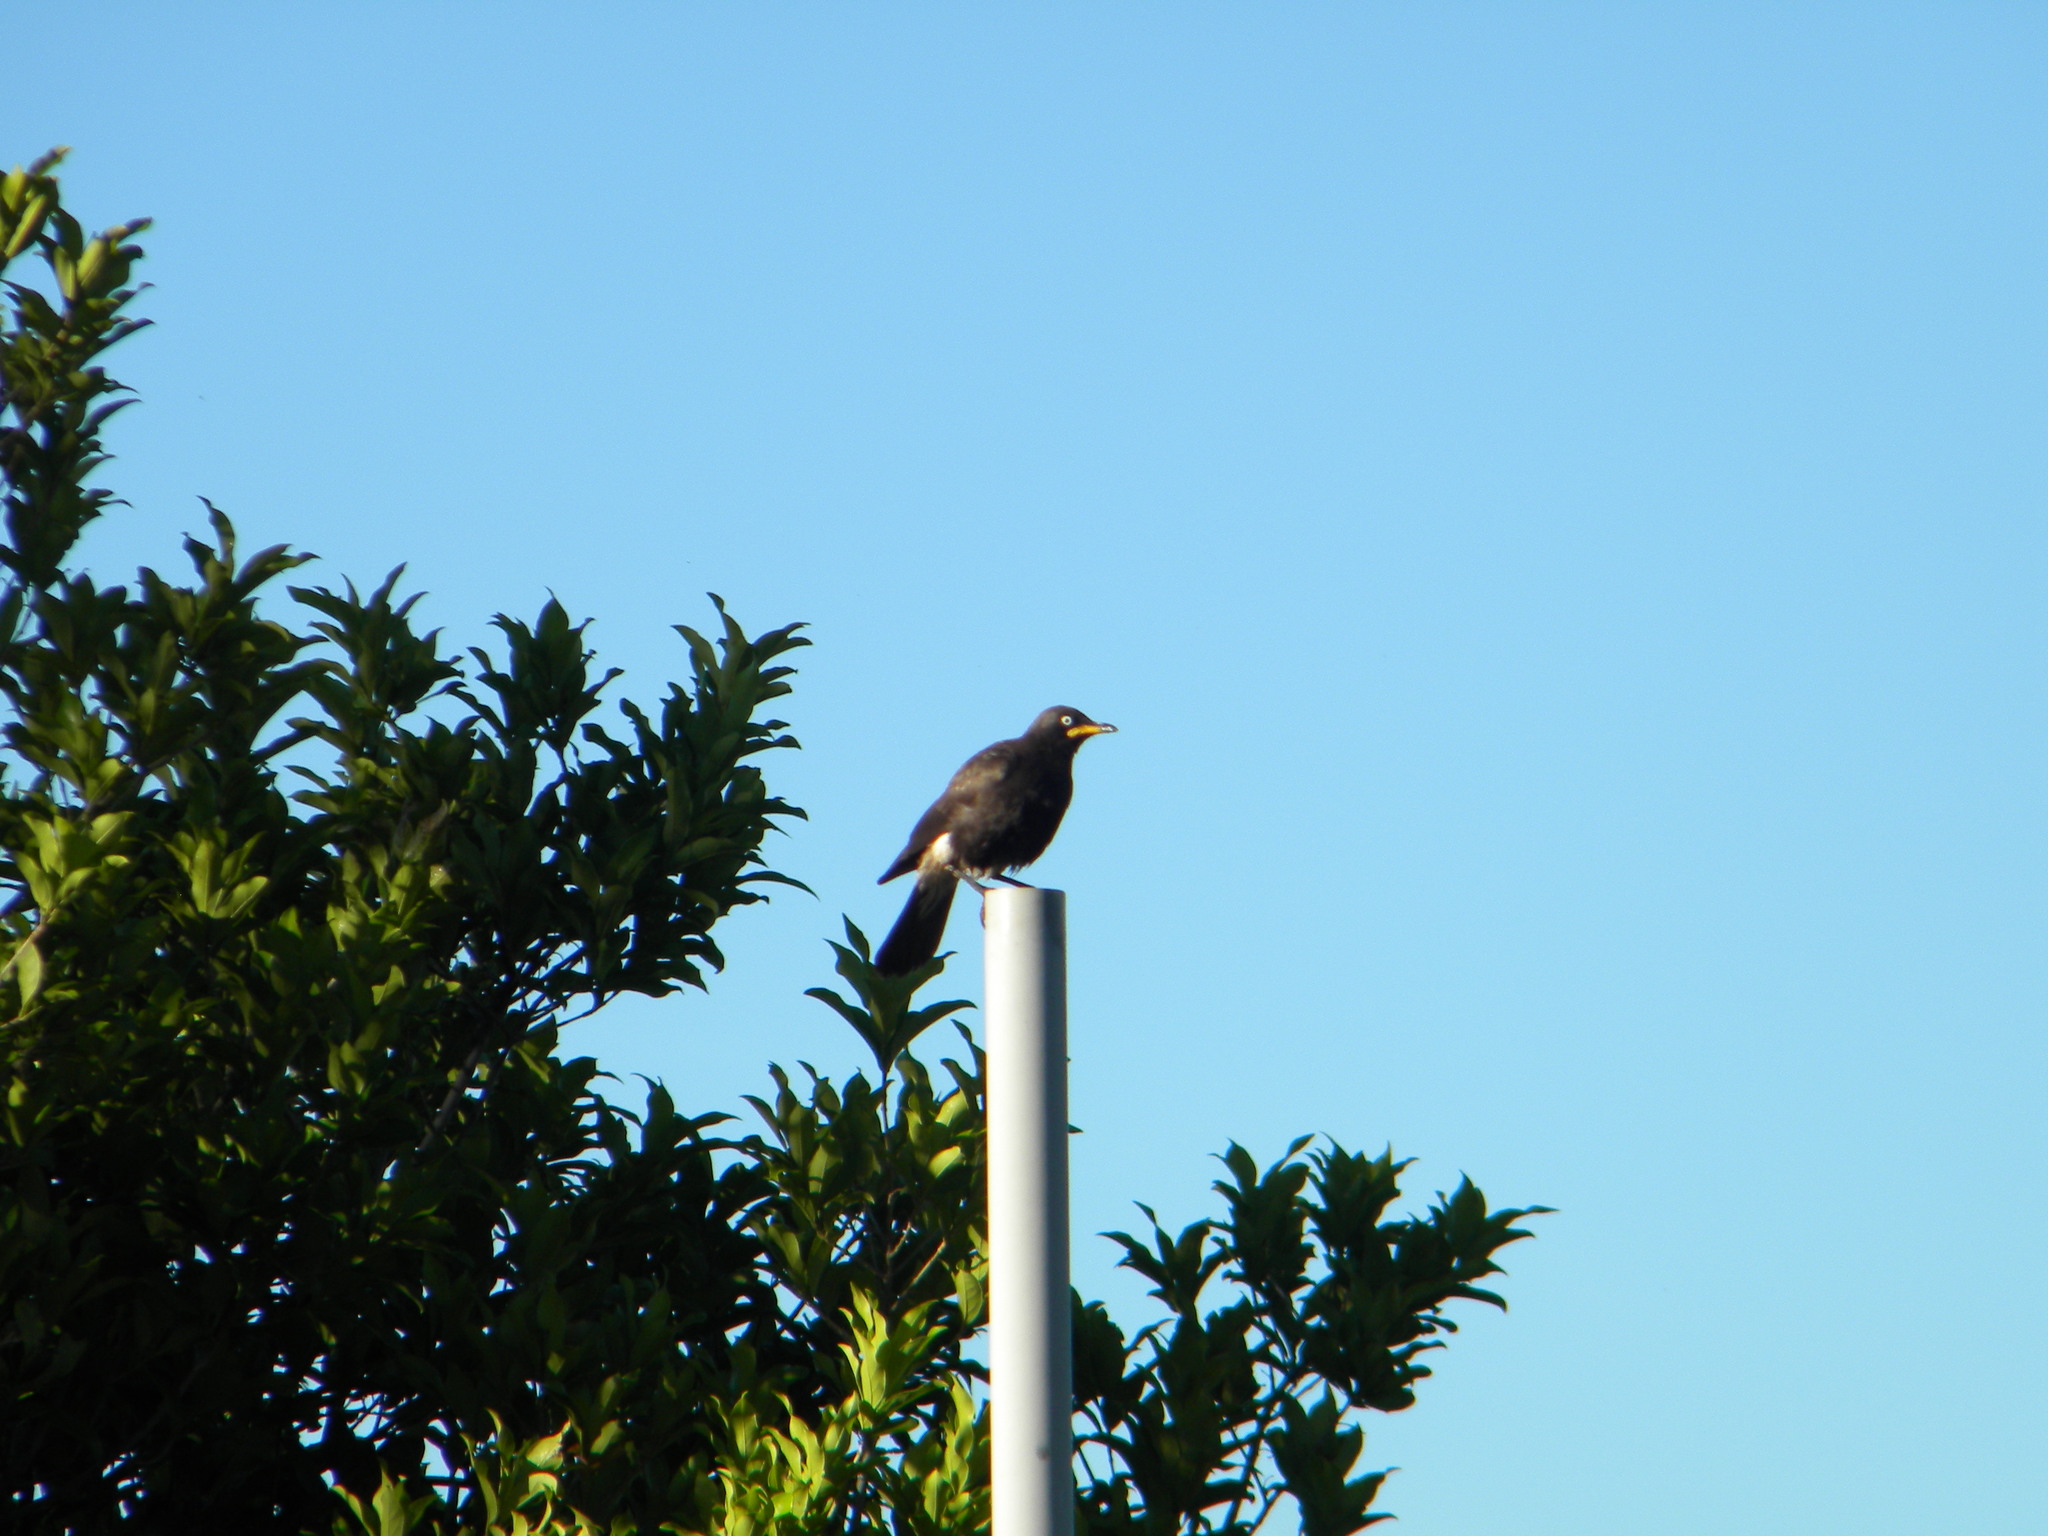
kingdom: Animalia
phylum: Chordata
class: Aves
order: Passeriformes
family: Sturnidae
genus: Lamprotornis
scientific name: Lamprotornis bicolor
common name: Pied starling
